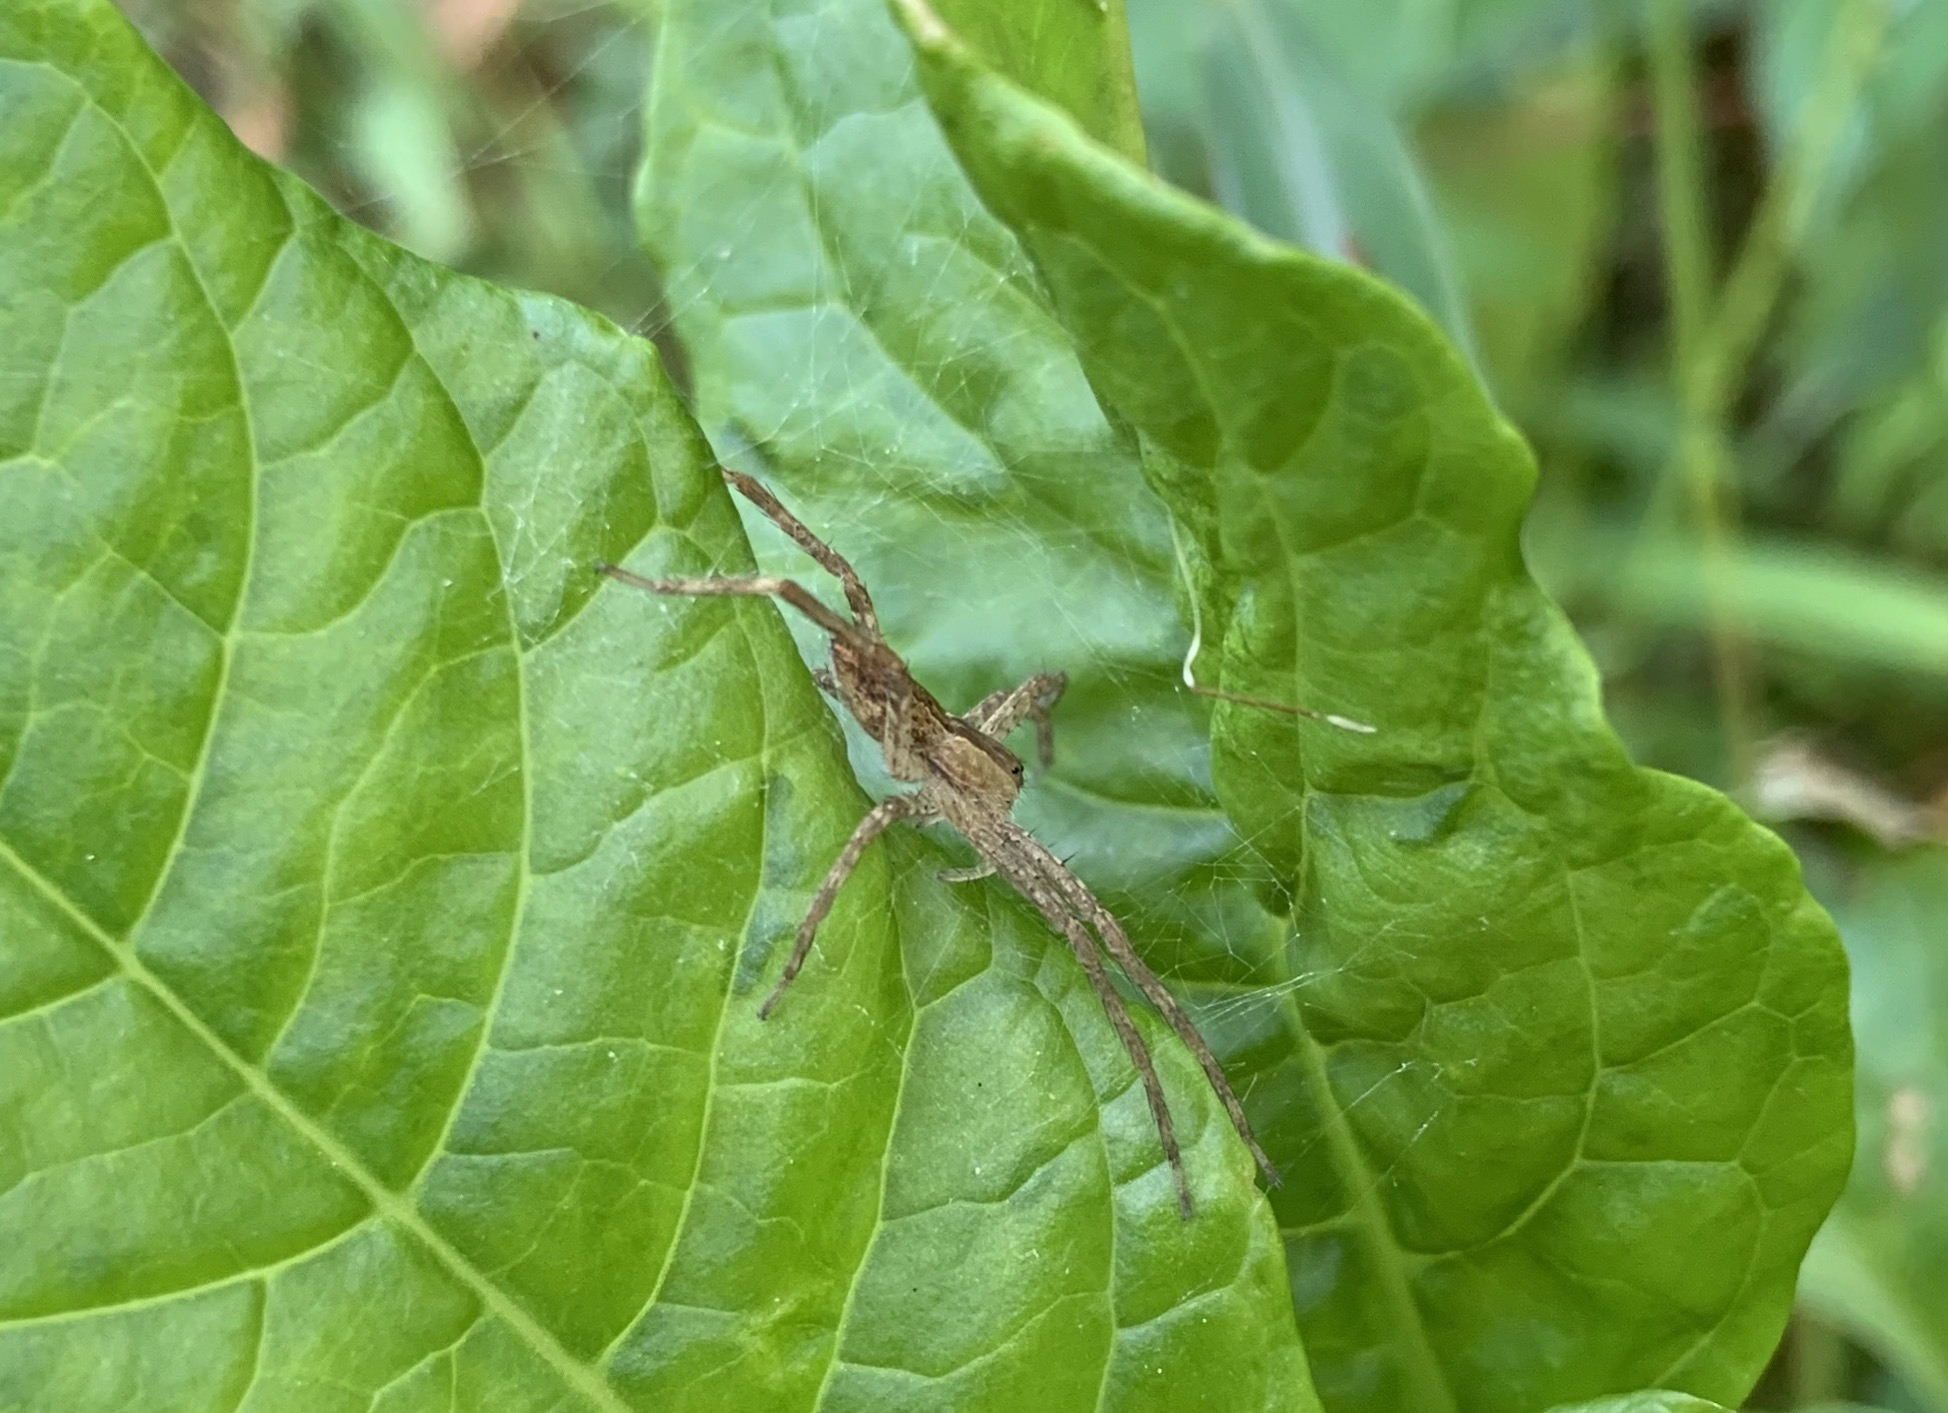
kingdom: Animalia
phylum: Arthropoda
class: Arachnida
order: Araneae
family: Pisauridae
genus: Pisaurina
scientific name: Pisaurina mira
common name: American nursery web spider
